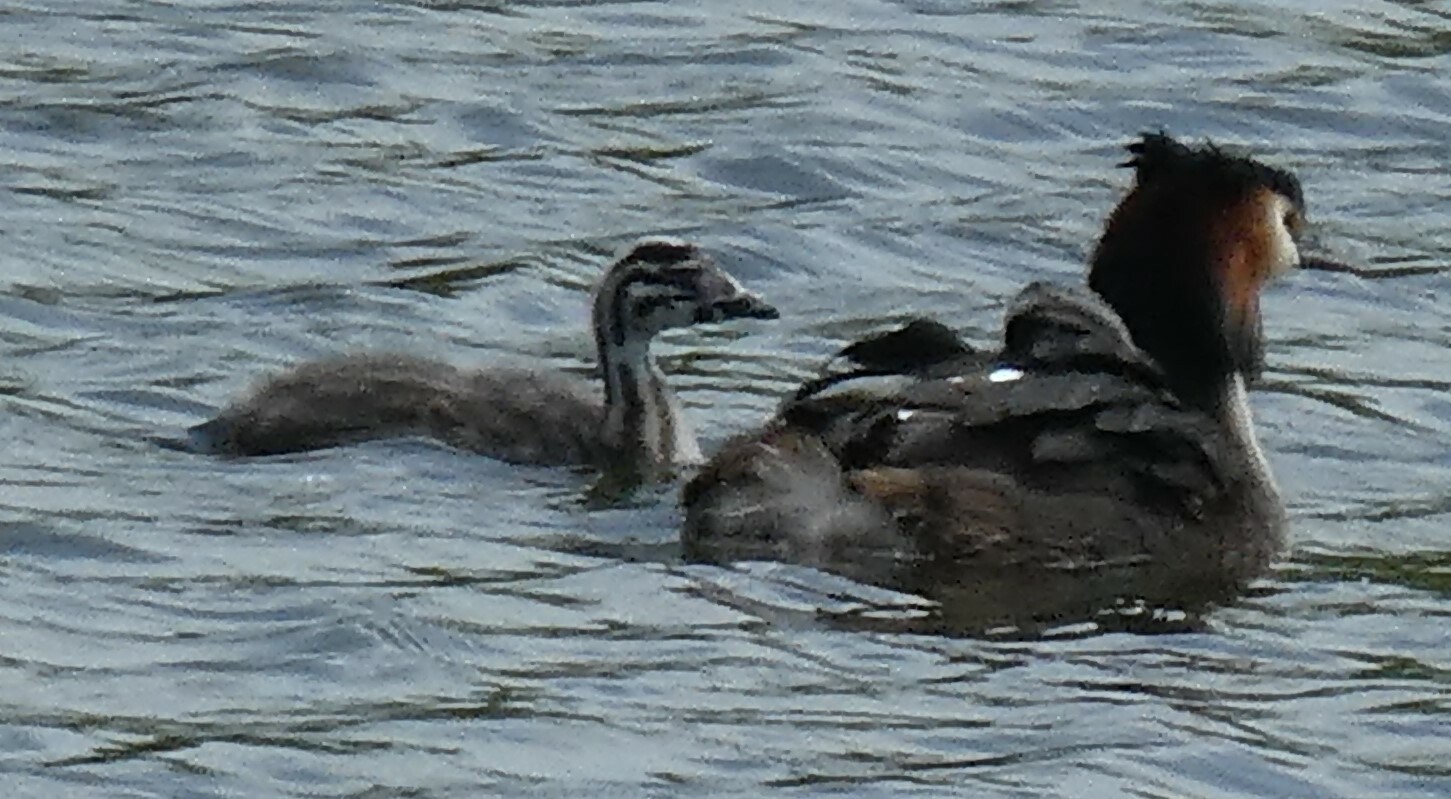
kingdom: Animalia
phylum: Chordata
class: Aves
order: Podicipediformes
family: Podicipedidae
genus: Podiceps
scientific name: Podiceps cristatus
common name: Great crested grebe
